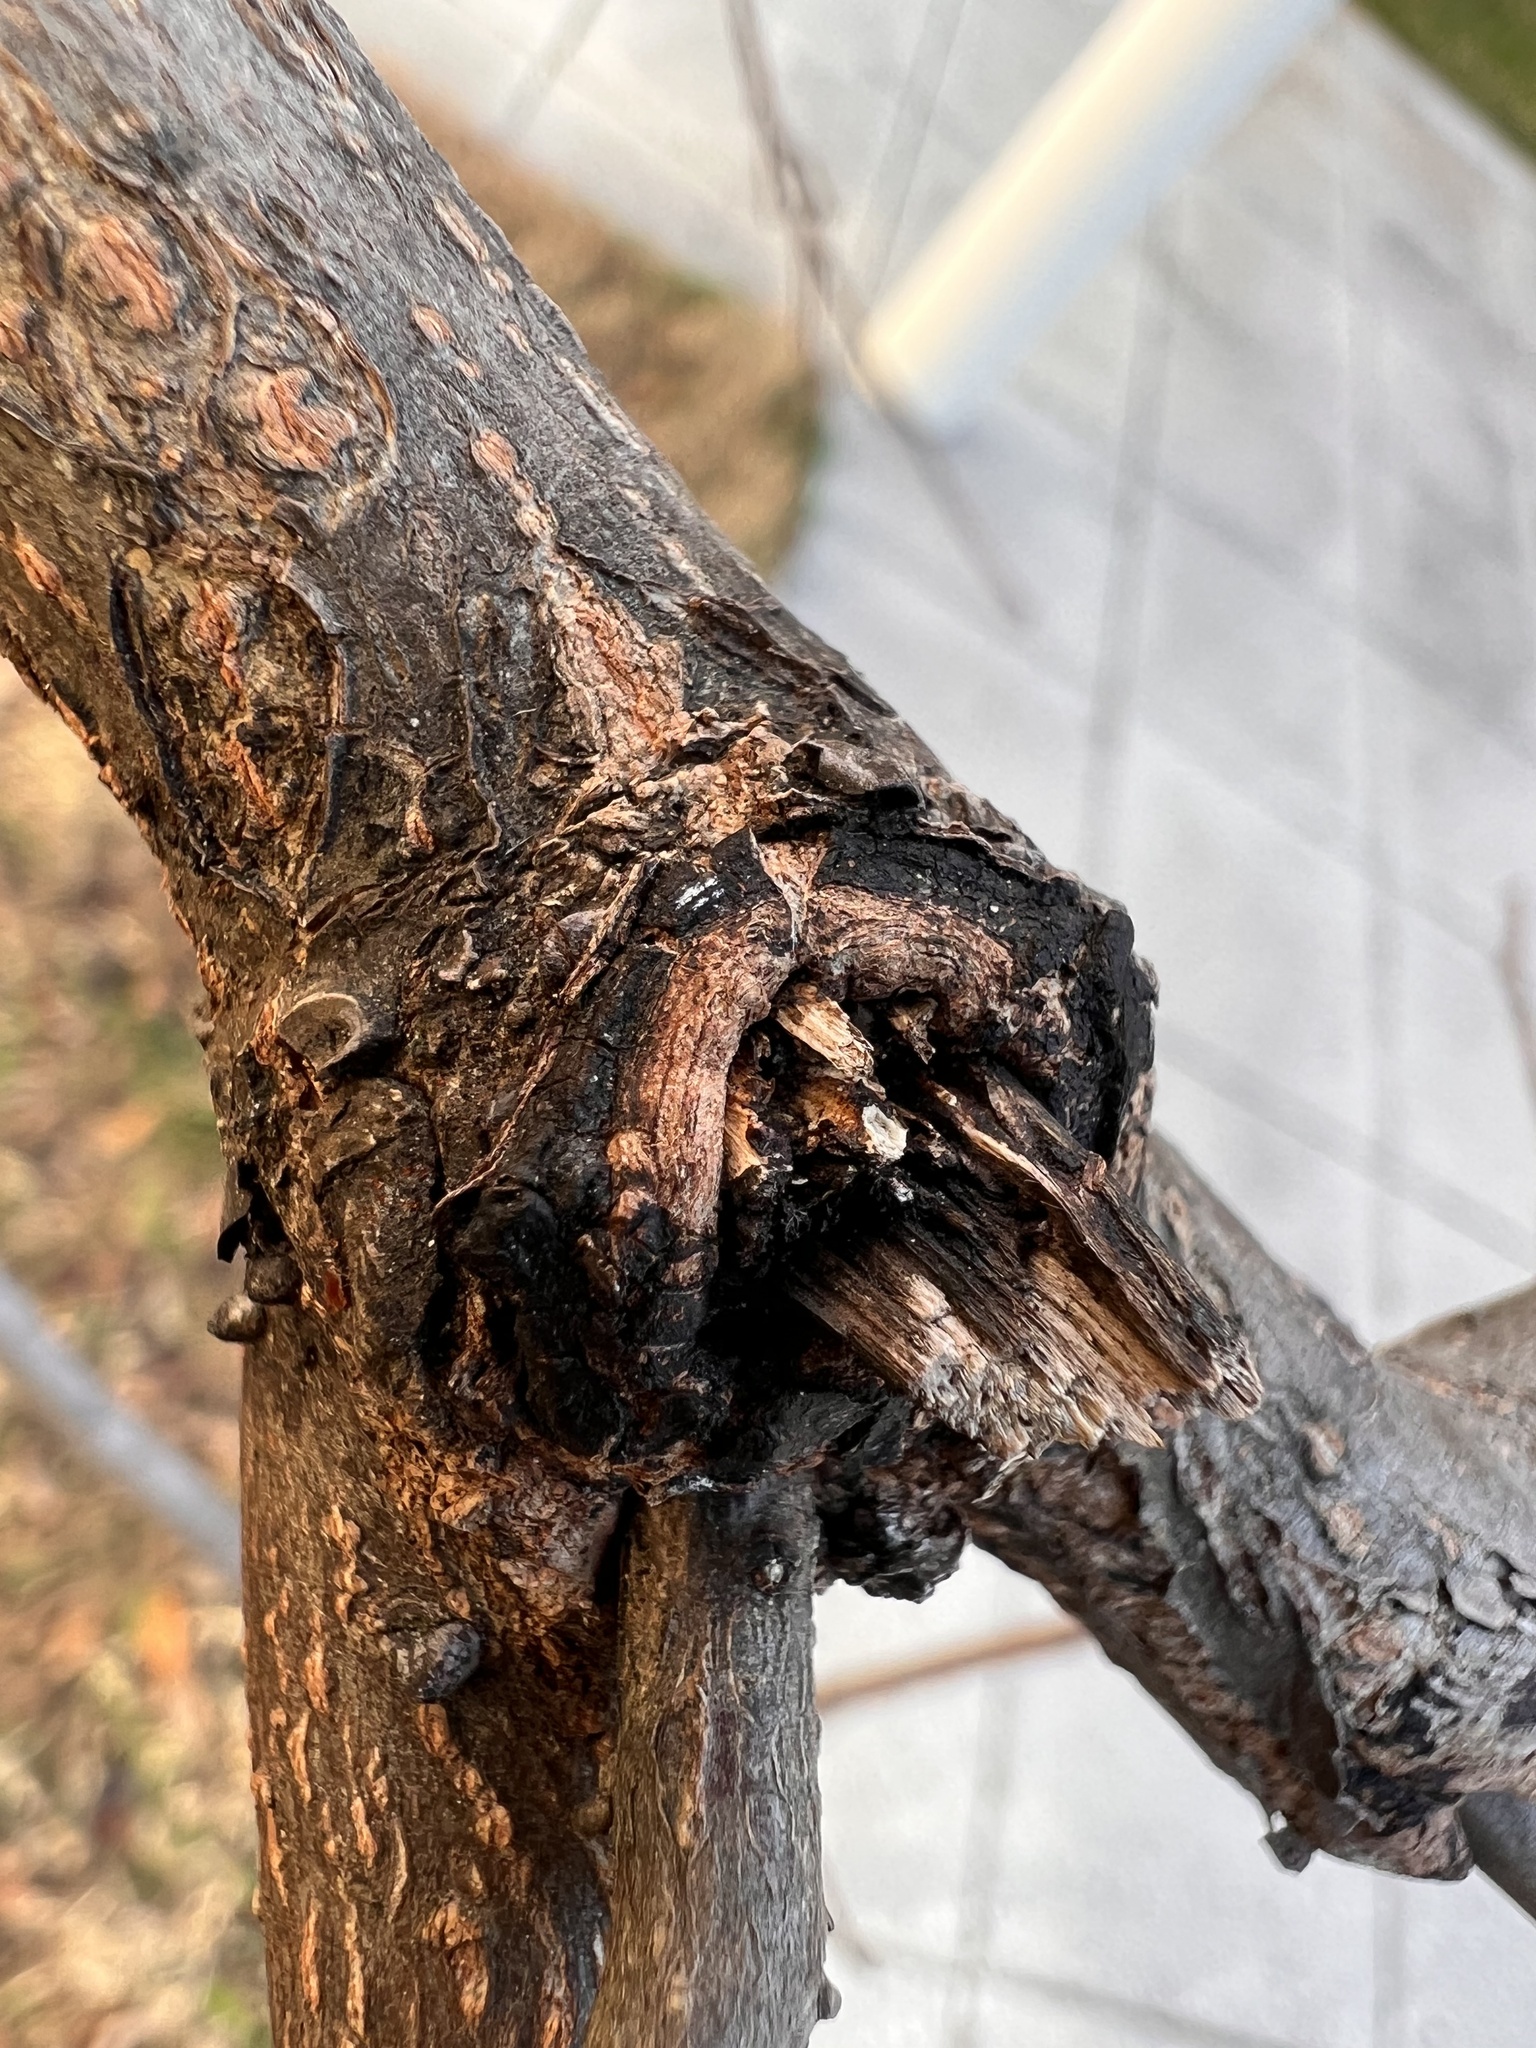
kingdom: Plantae
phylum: Tracheophyta
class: Magnoliopsida
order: Ericales
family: Ebenaceae
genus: Diospyros
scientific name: Diospyros virginiana
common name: Persimmon
